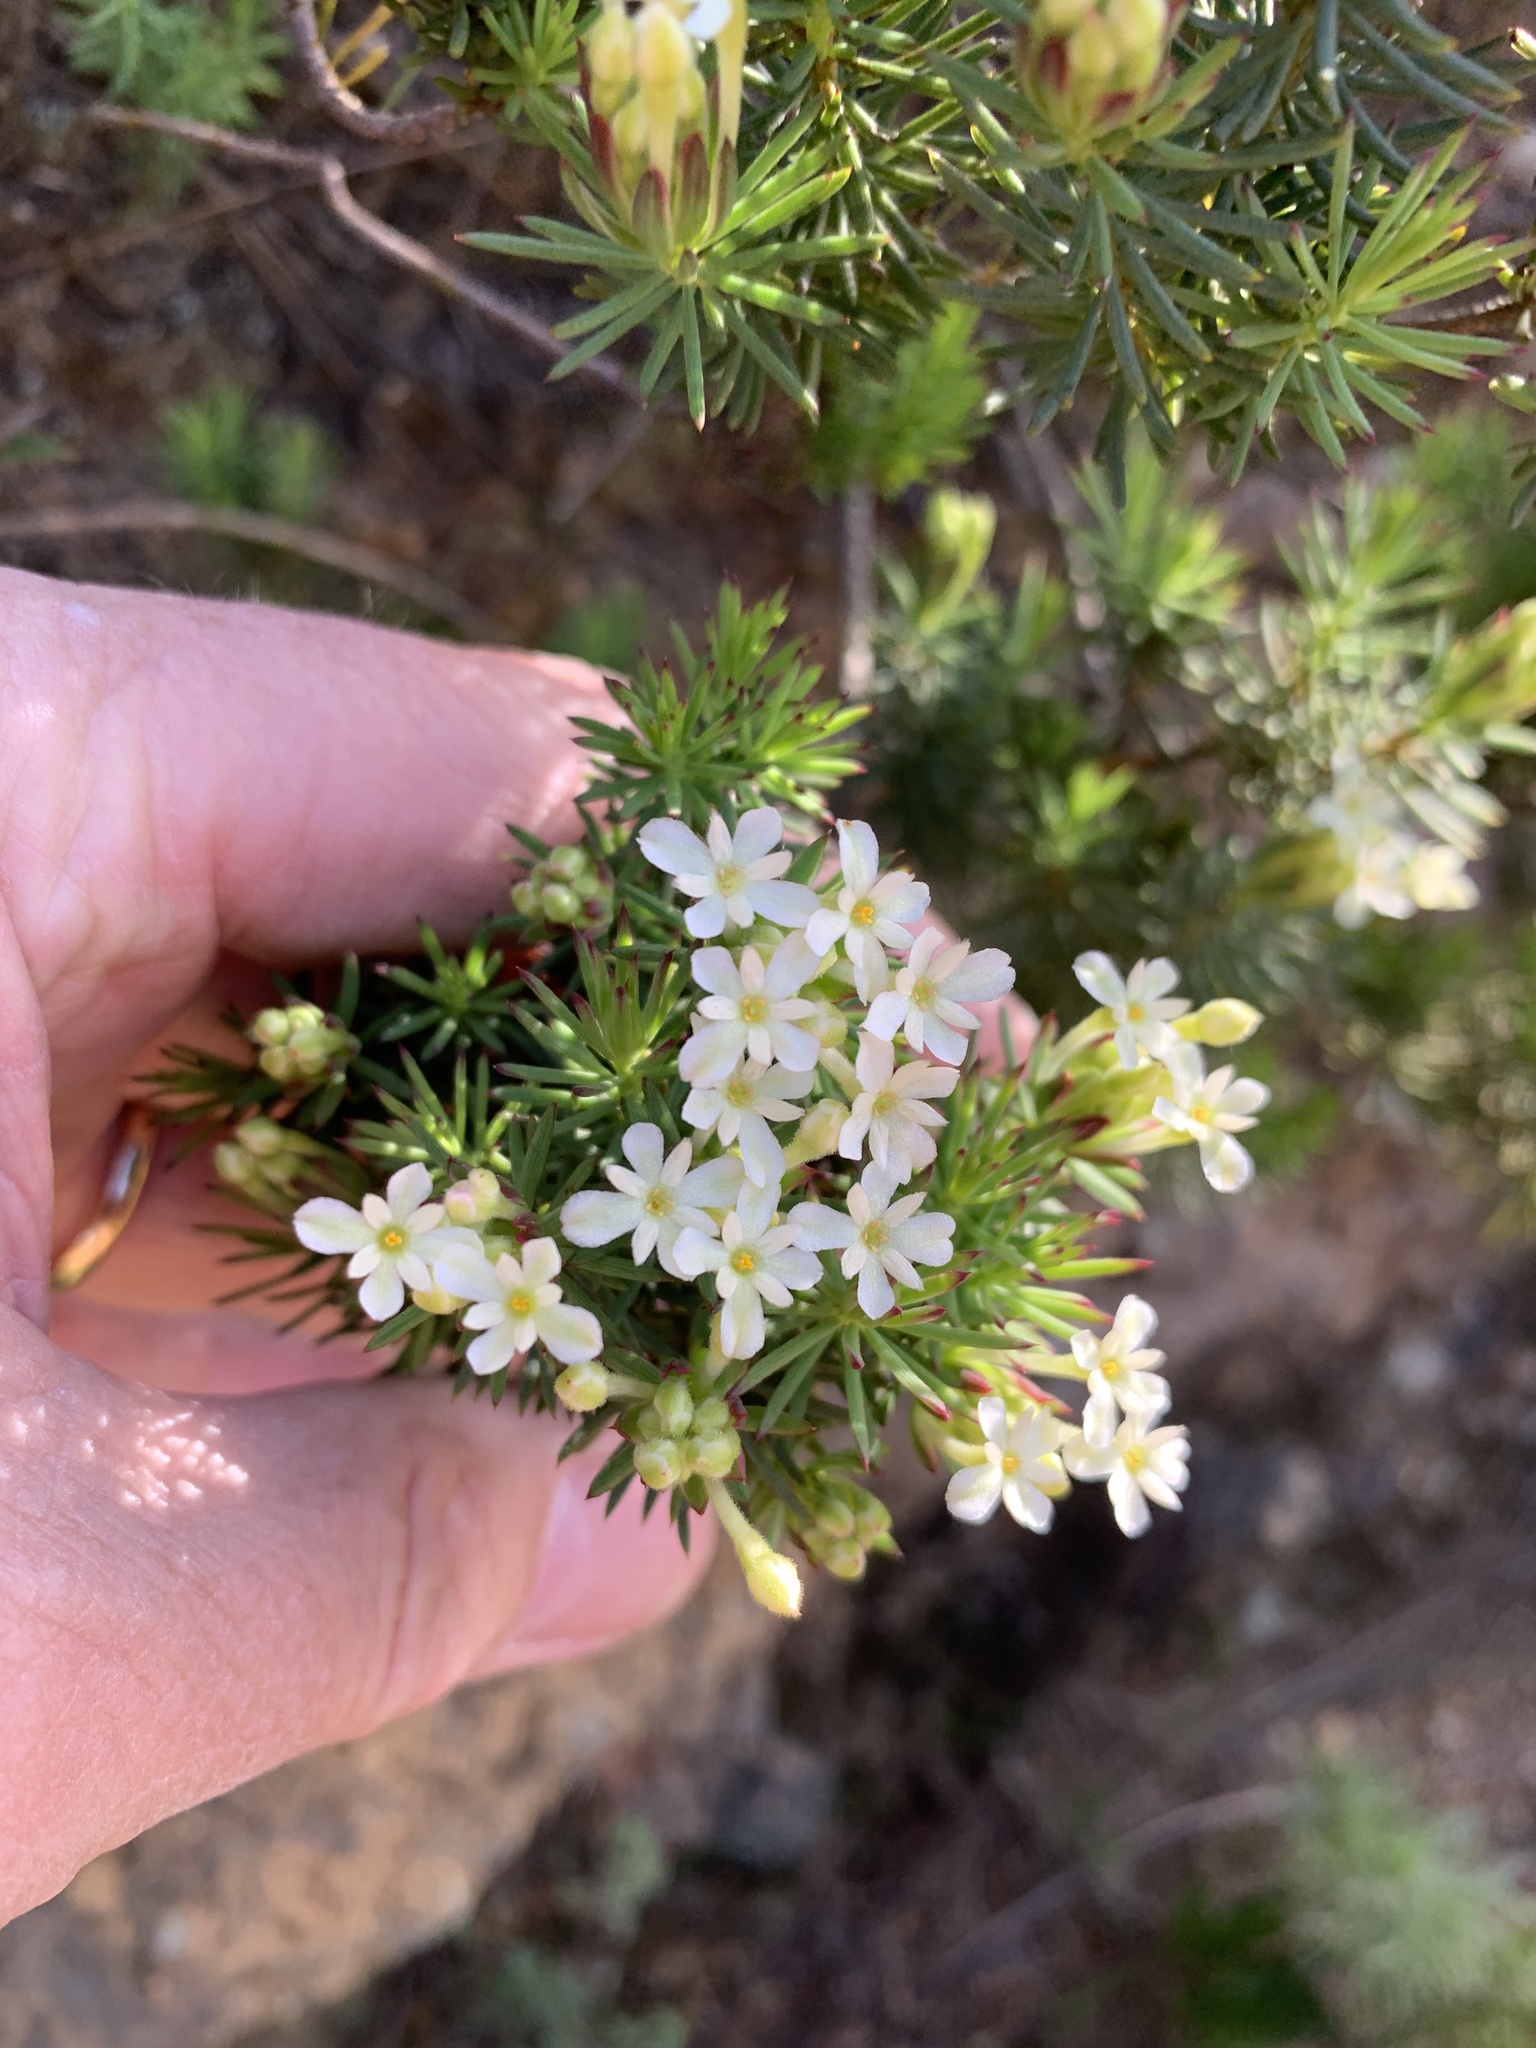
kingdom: Plantae
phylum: Tracheophyta
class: Magnoliopsida
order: Malvales
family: Thymelaeaceae
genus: Gnidia
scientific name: Gnidia pinifolia
